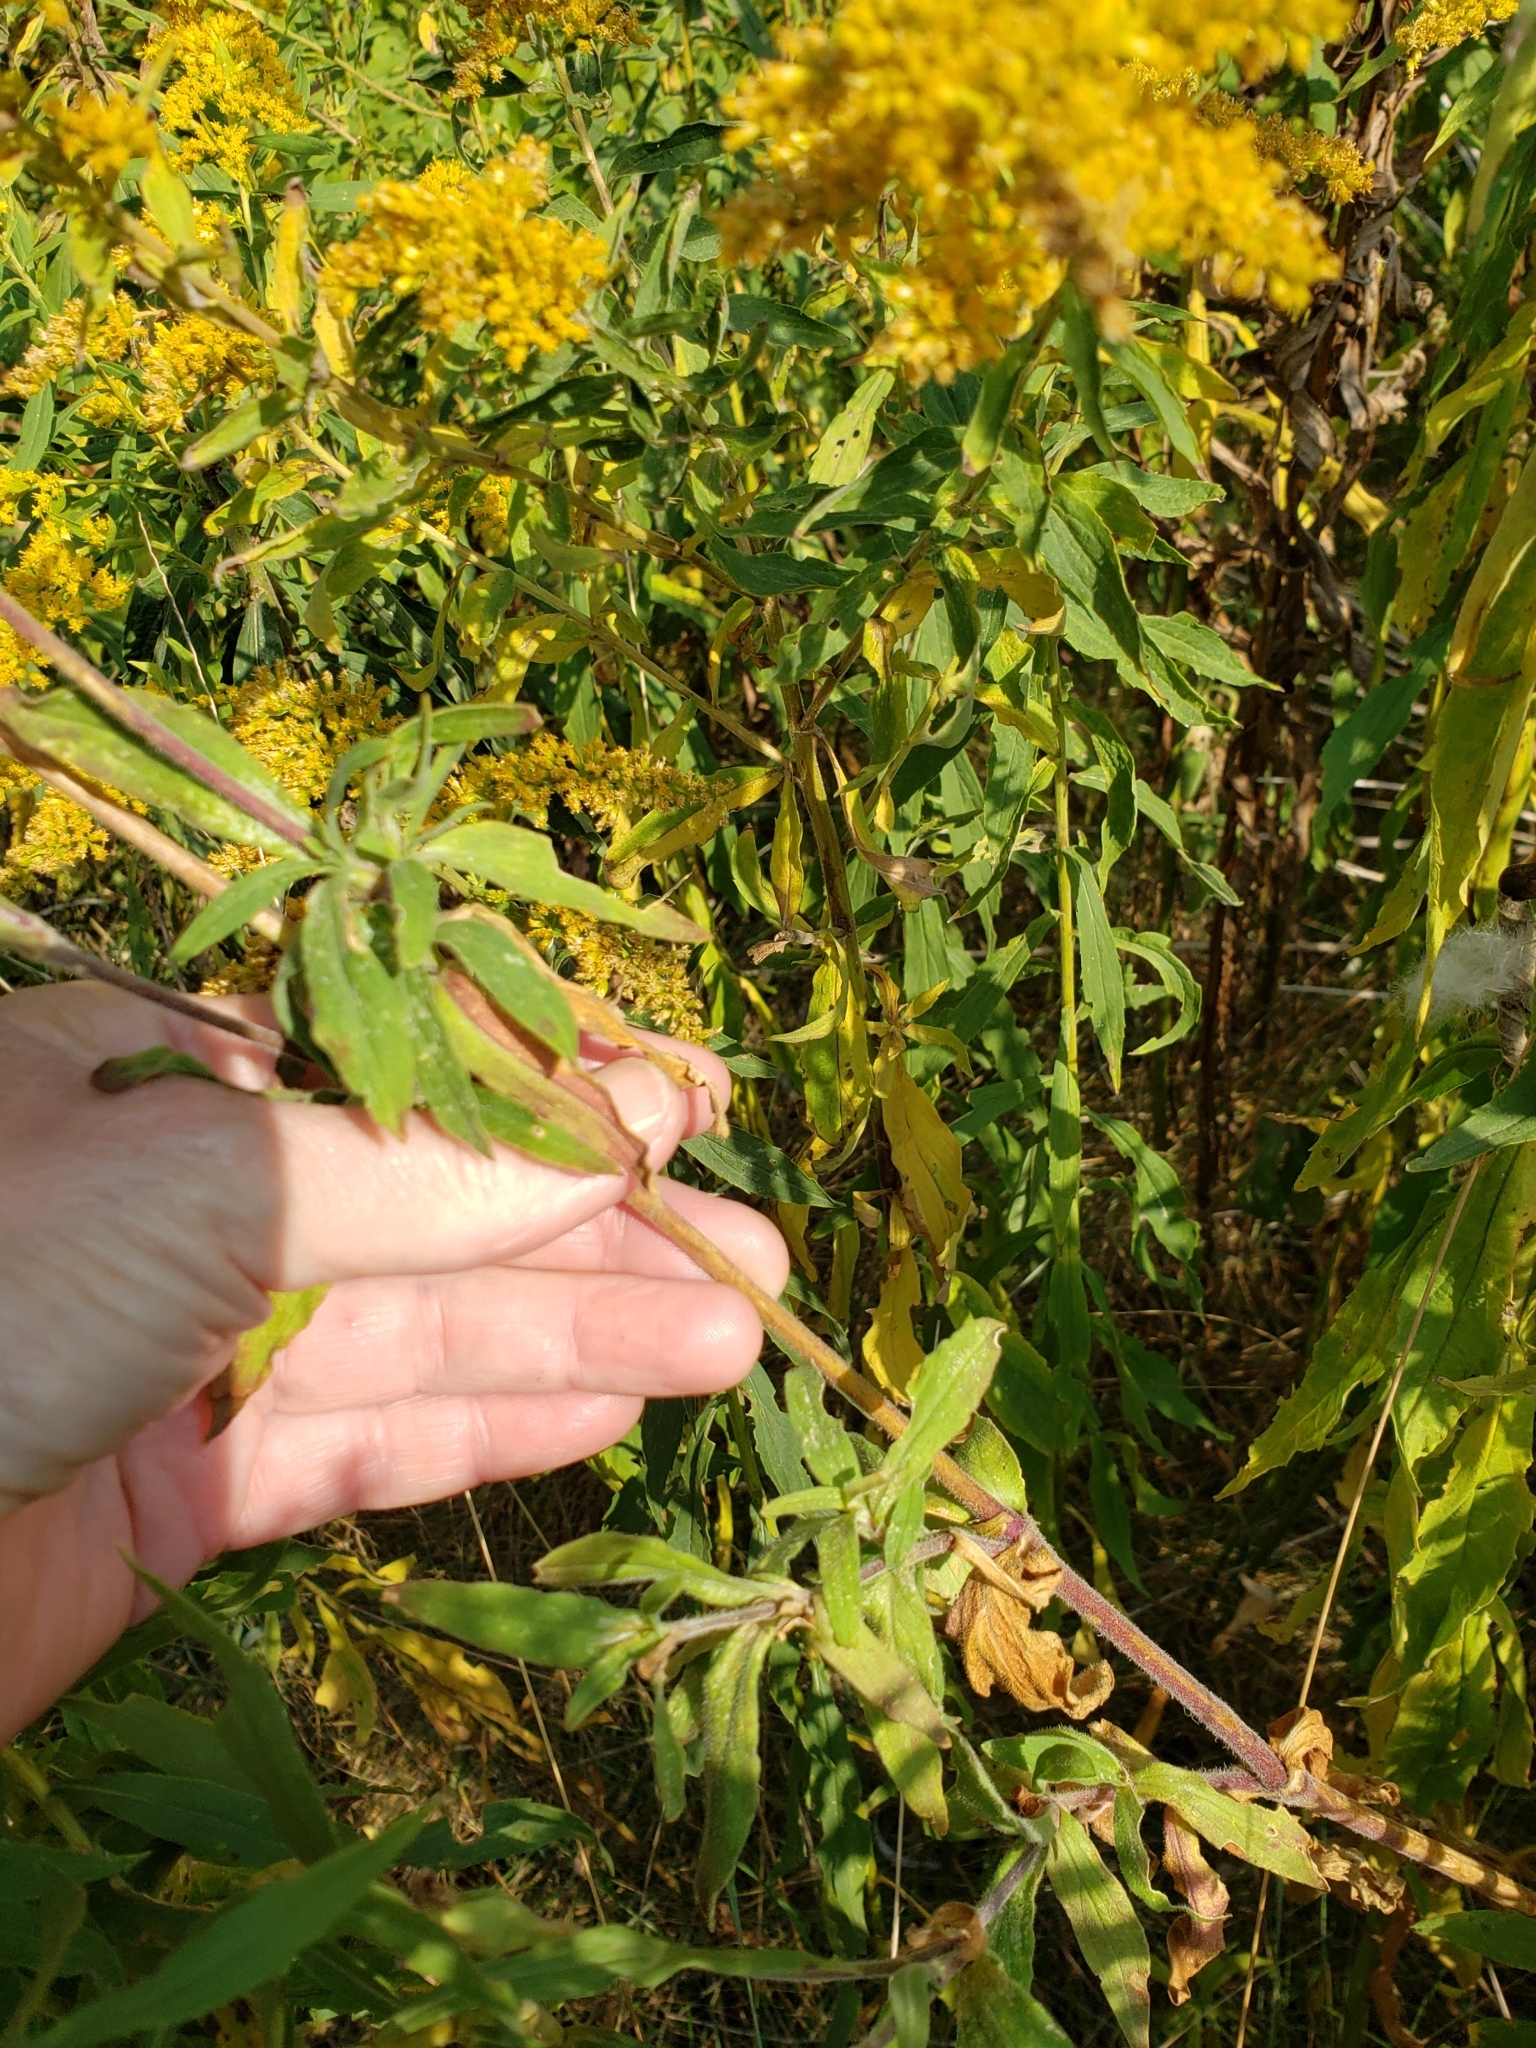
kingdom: Plantae
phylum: Tracheophyta
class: Magnoliopsida
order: Caryophyllales
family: Caryophyllaceae
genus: Silene
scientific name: Silene latifolia
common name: White campion
